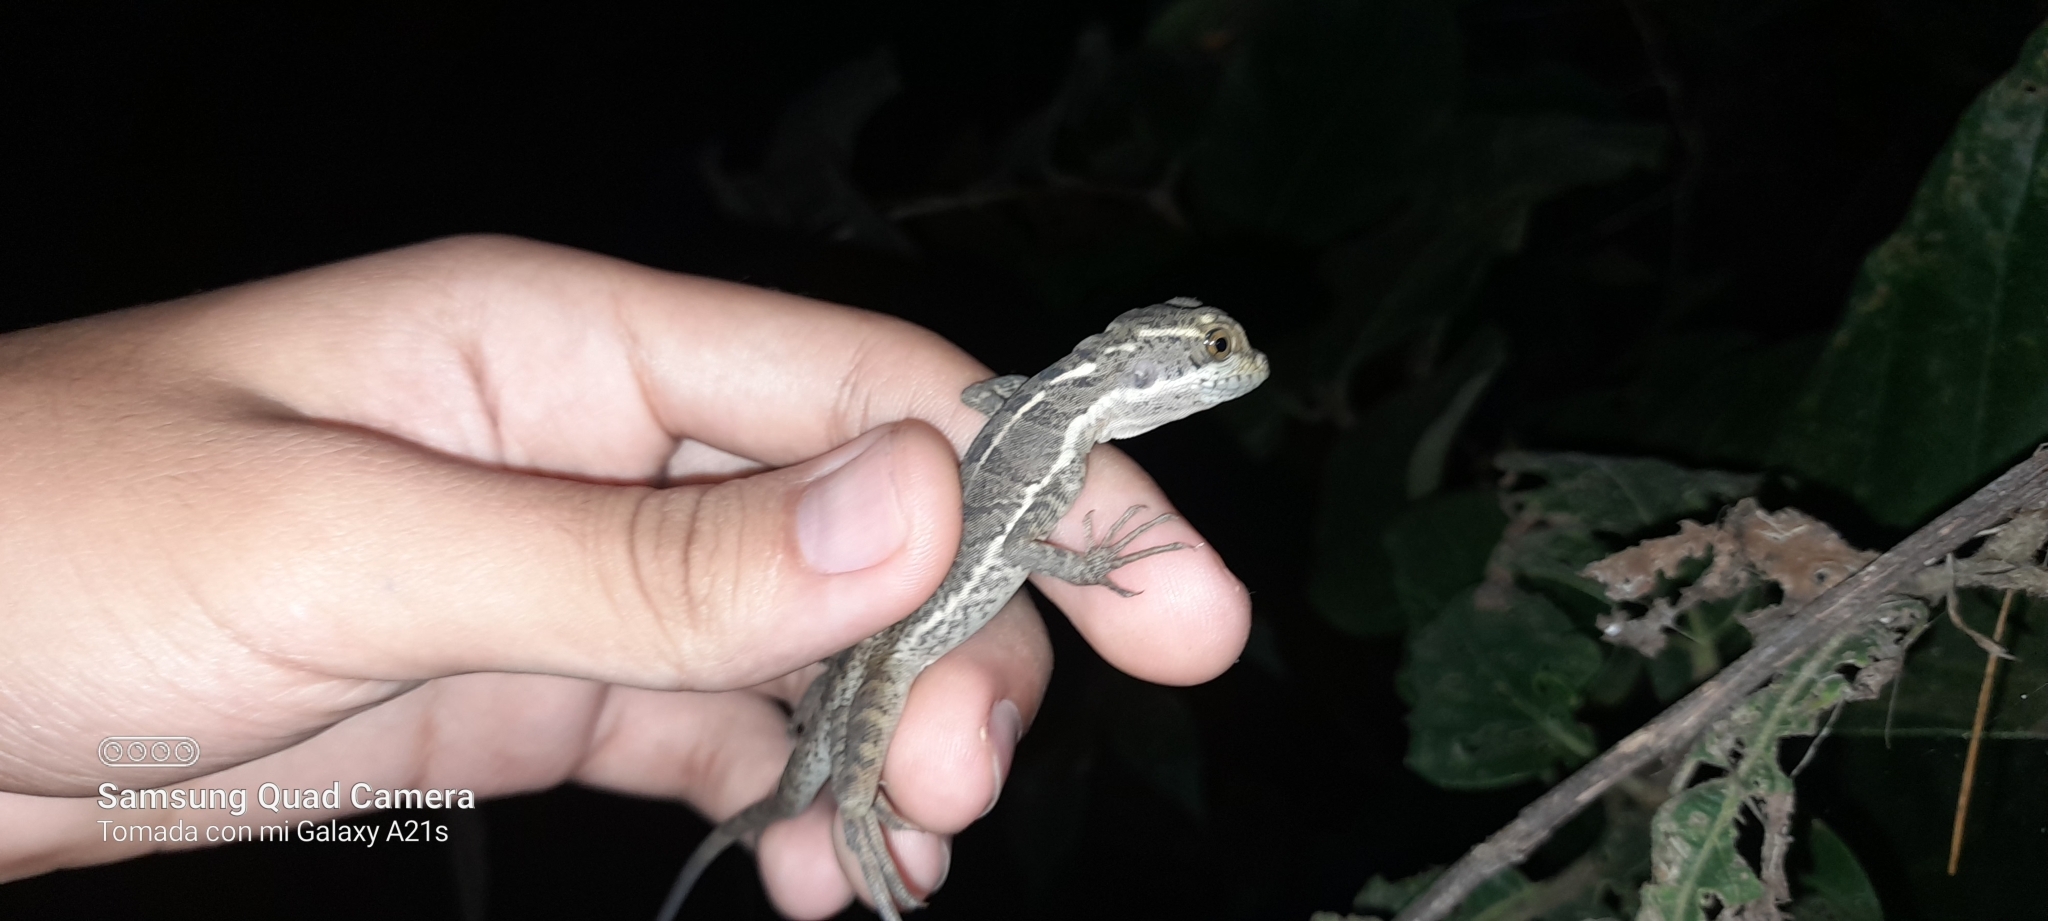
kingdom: Animalia
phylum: Chordata
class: Squamata
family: Corytophanidae
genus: Basiliscus
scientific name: Basiliscus basiliscus
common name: Common basilisk
